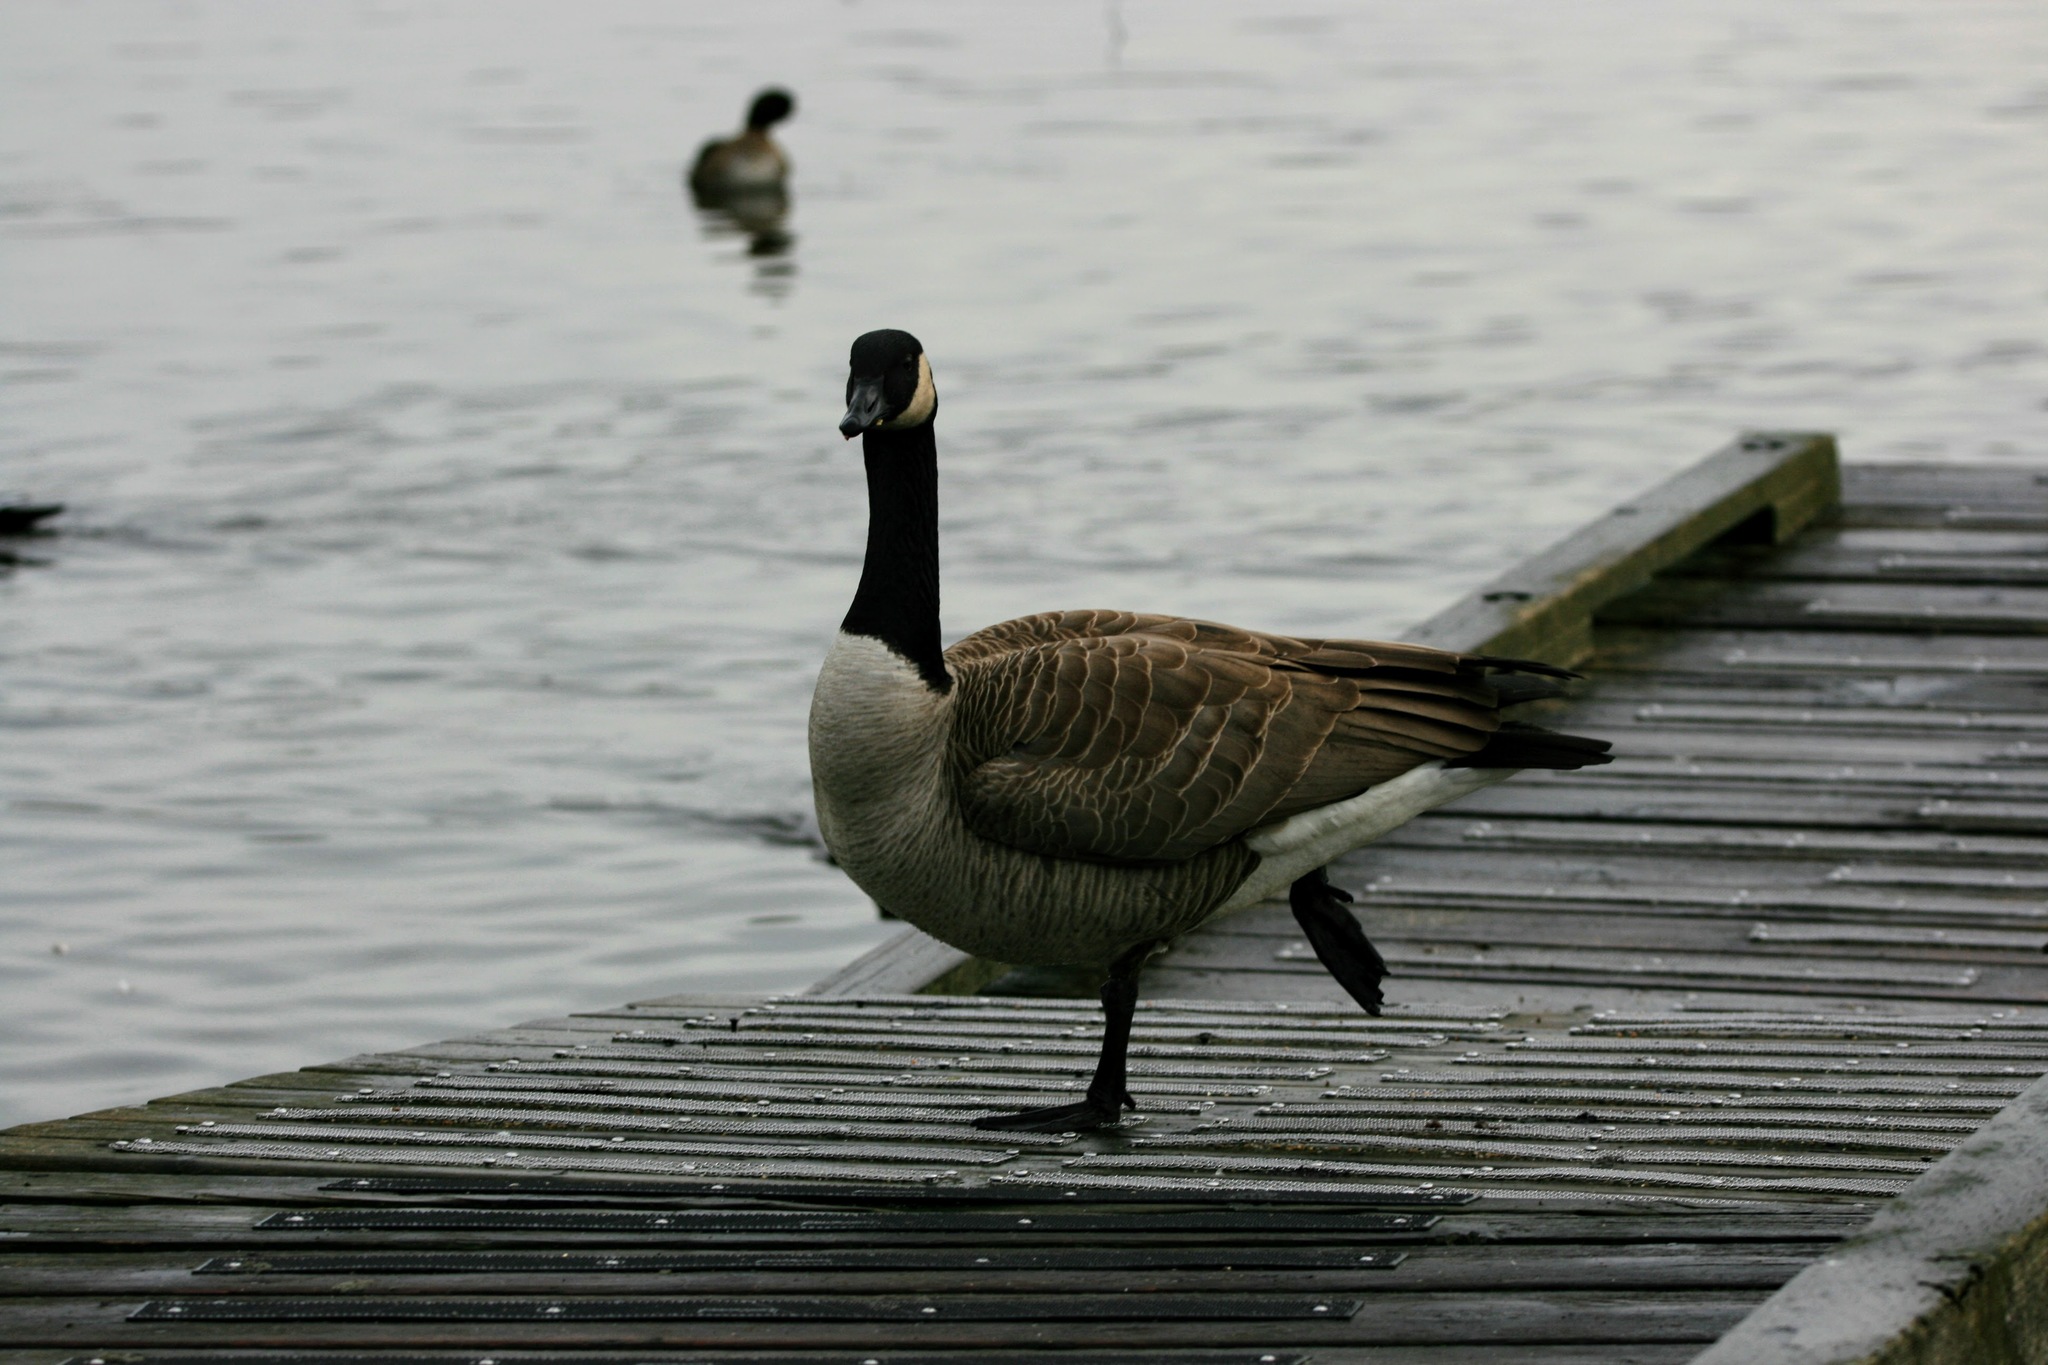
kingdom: Animalia
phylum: Chordata
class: Aves
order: Anseriformes
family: Anatidae
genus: Branta
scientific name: Branta canadensis
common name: Canada goose
